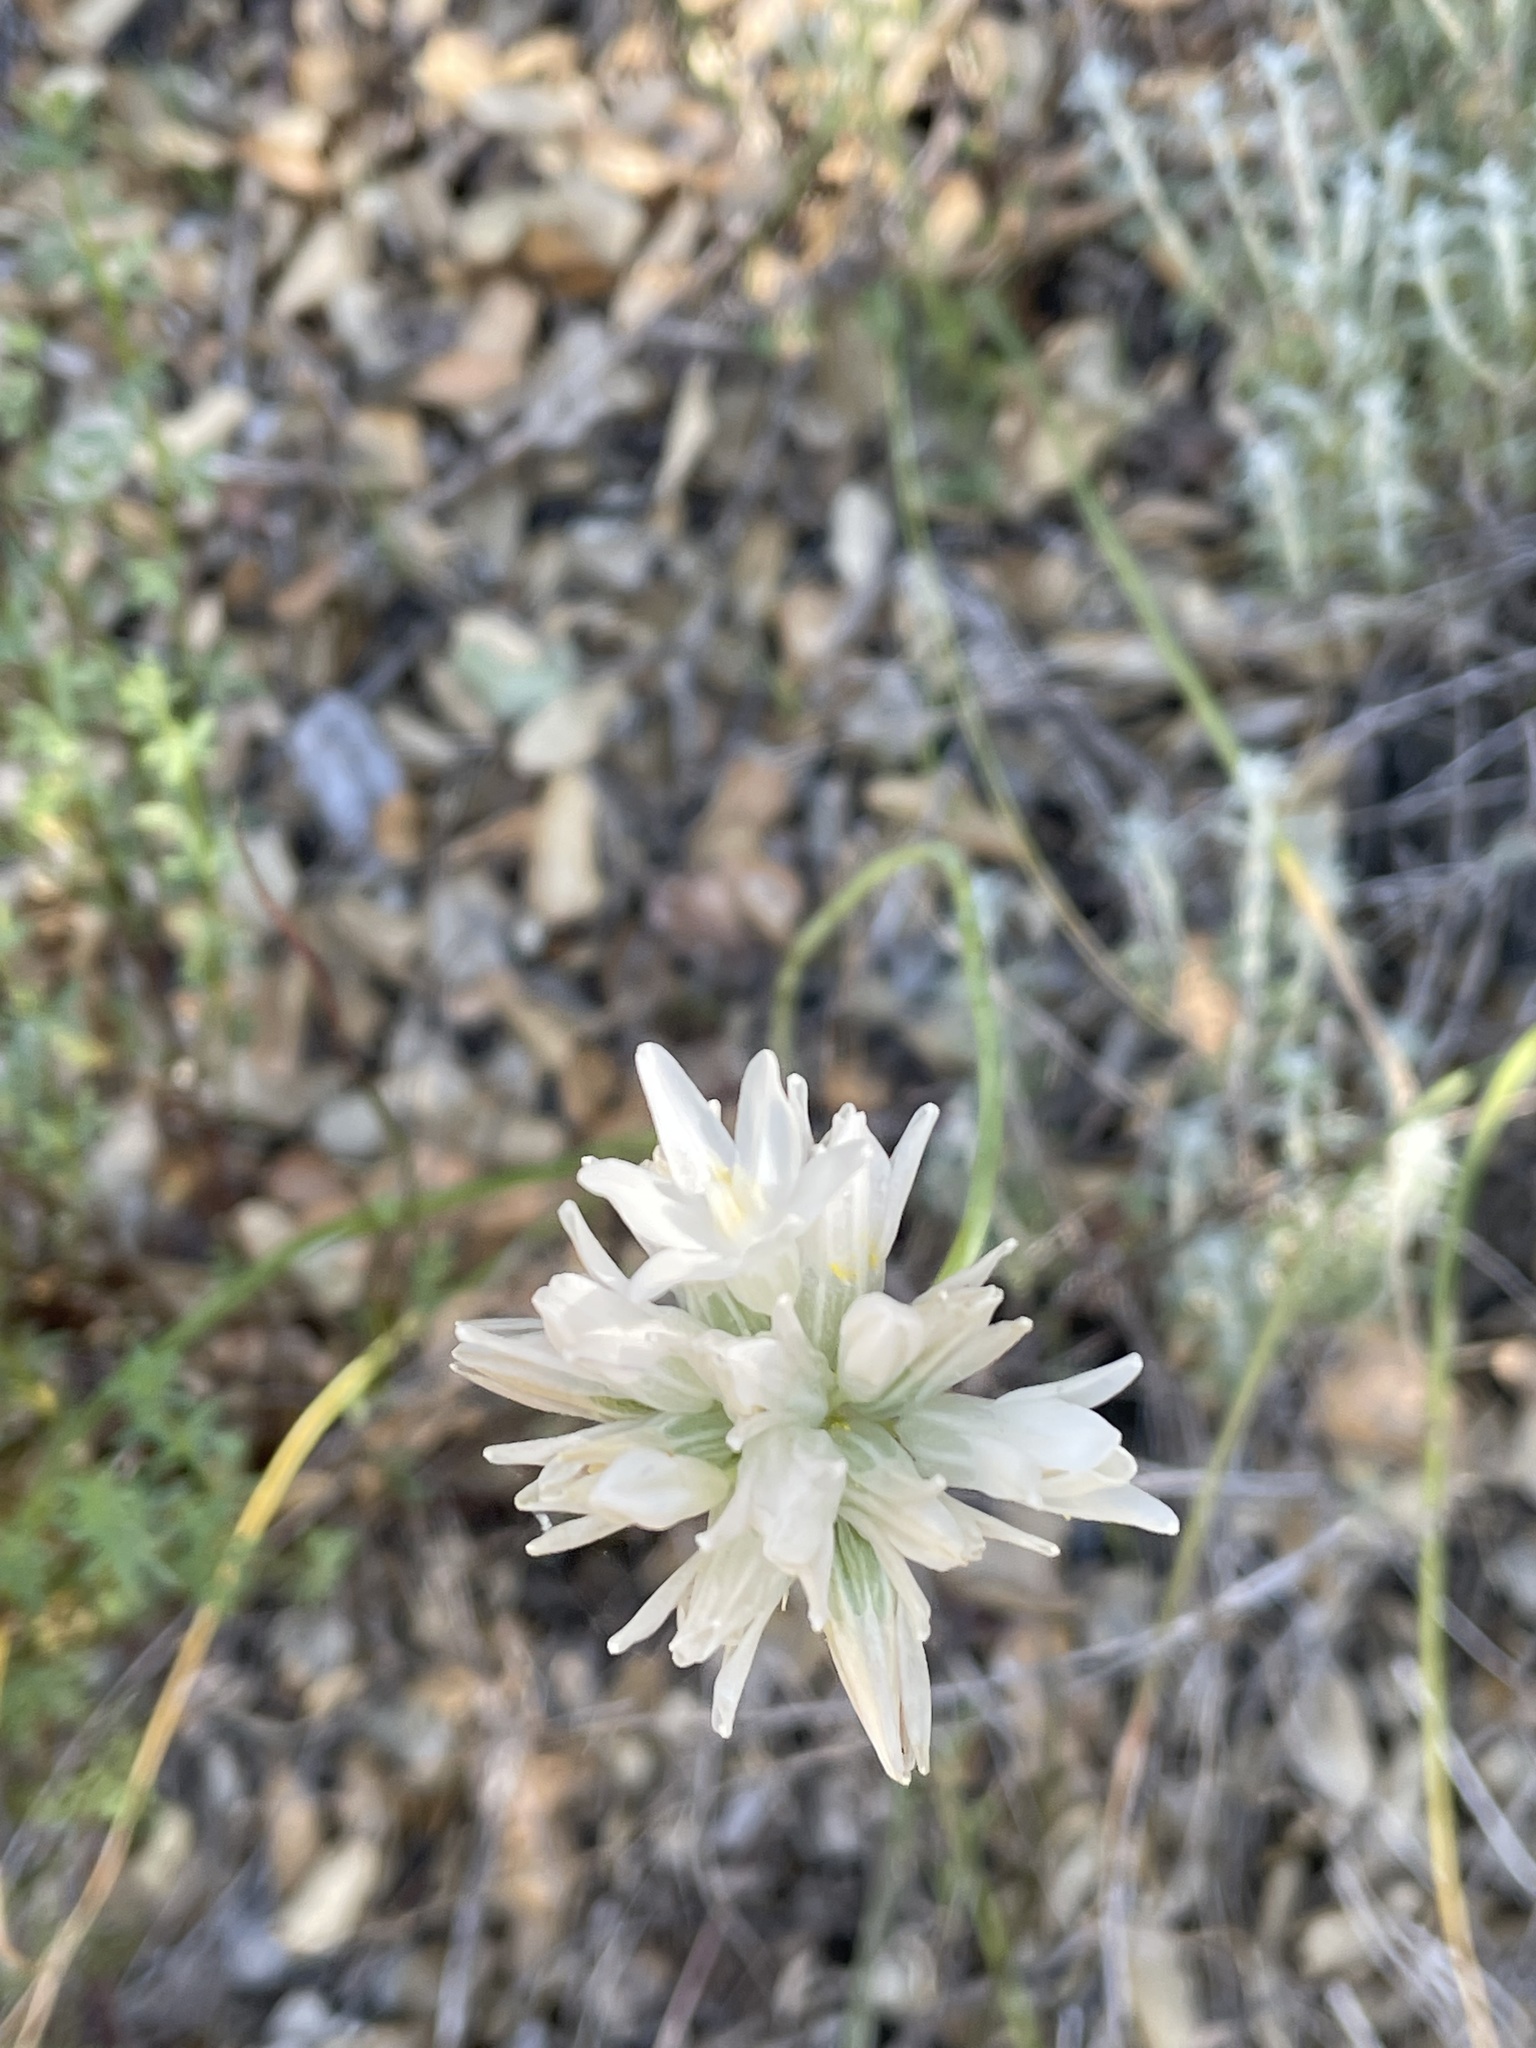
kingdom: Plantae
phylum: Tracheophyta
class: Liliopsida
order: Asparagales
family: Asparagaceae
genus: Dipterostemon
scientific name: Dipterostemon capitatus
